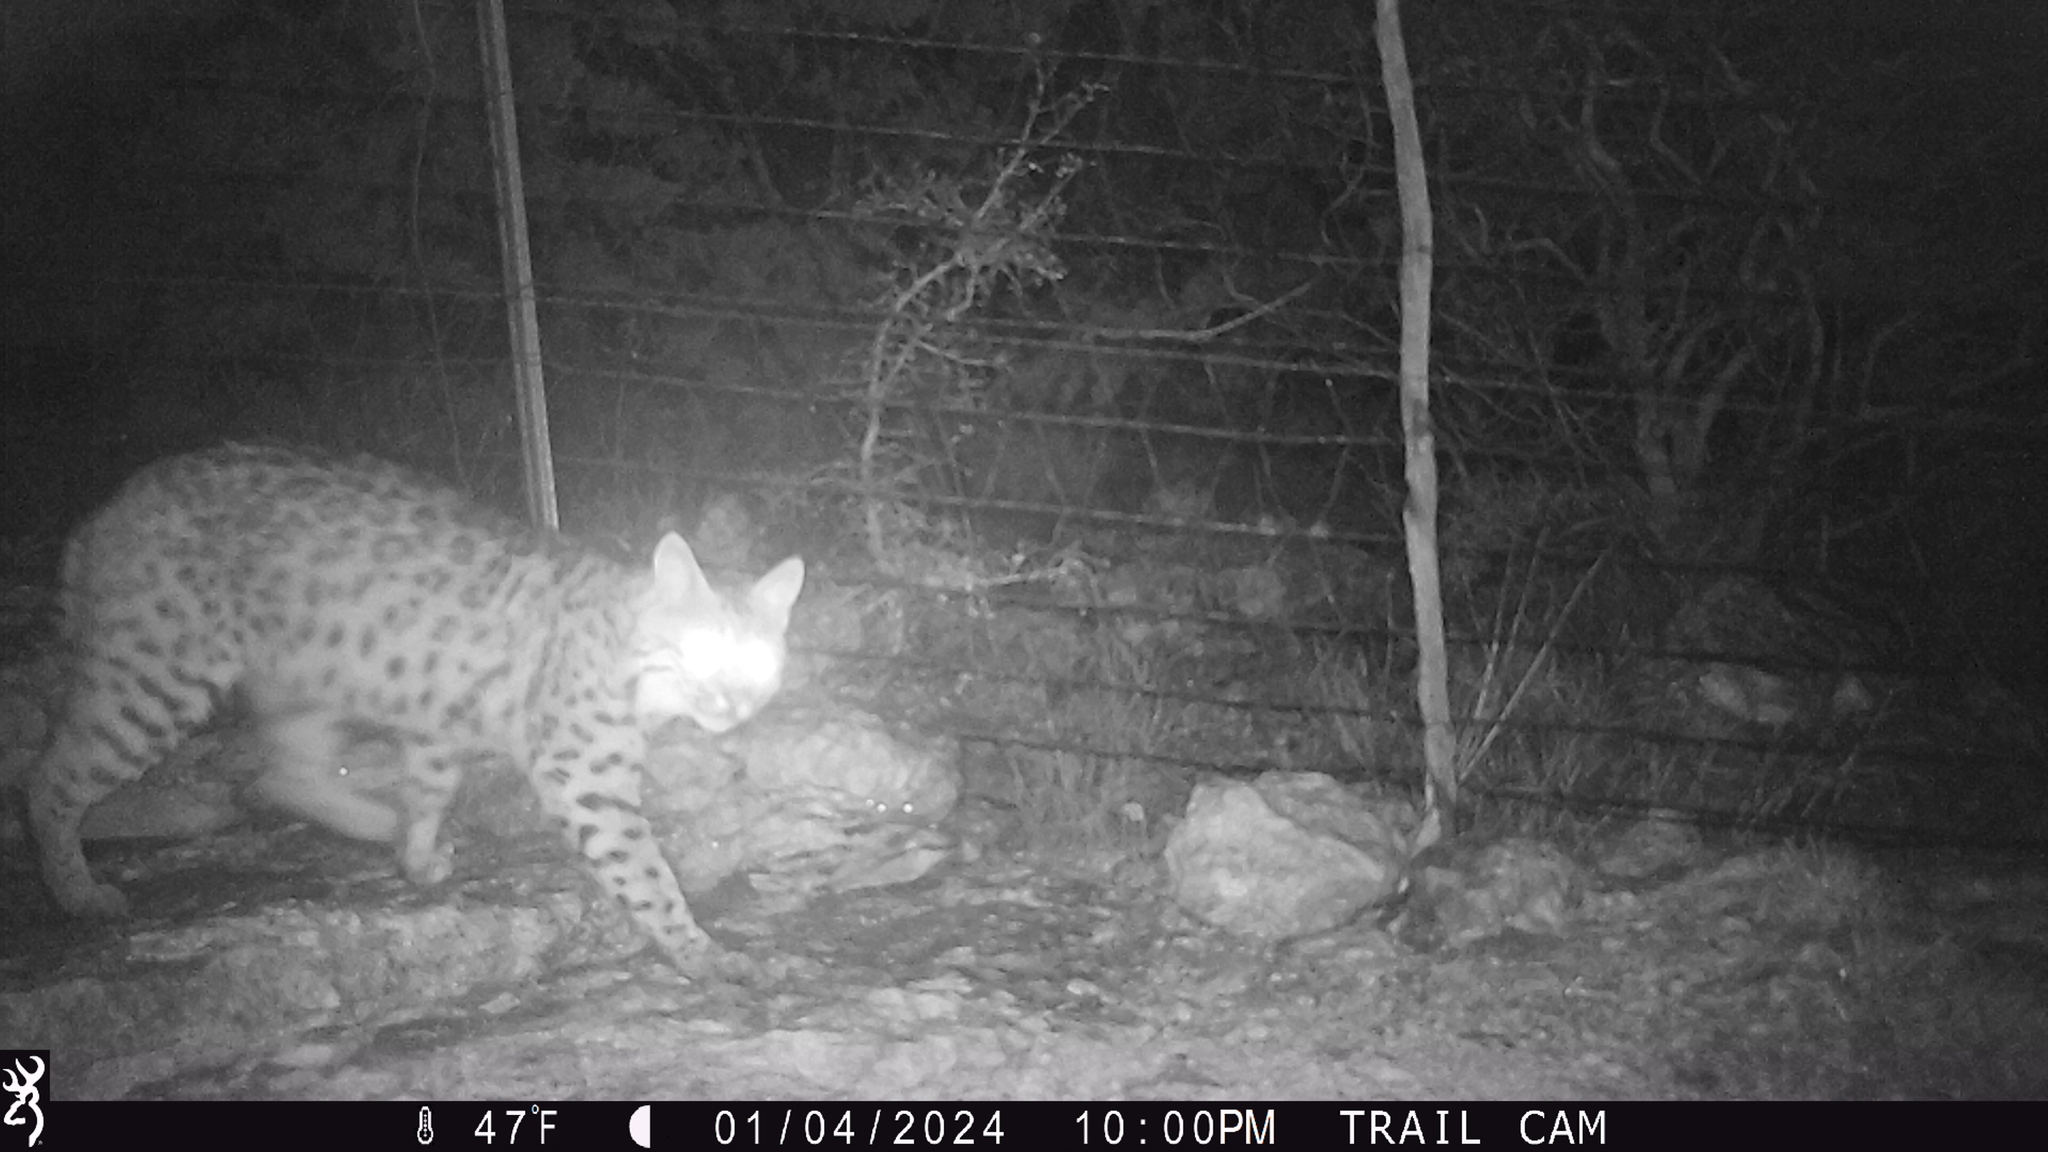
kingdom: Animalia
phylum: Chordata
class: Mammalia
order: Carnivora
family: Felidae
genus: Lynx
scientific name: Lynx rufus
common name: Bobcat
